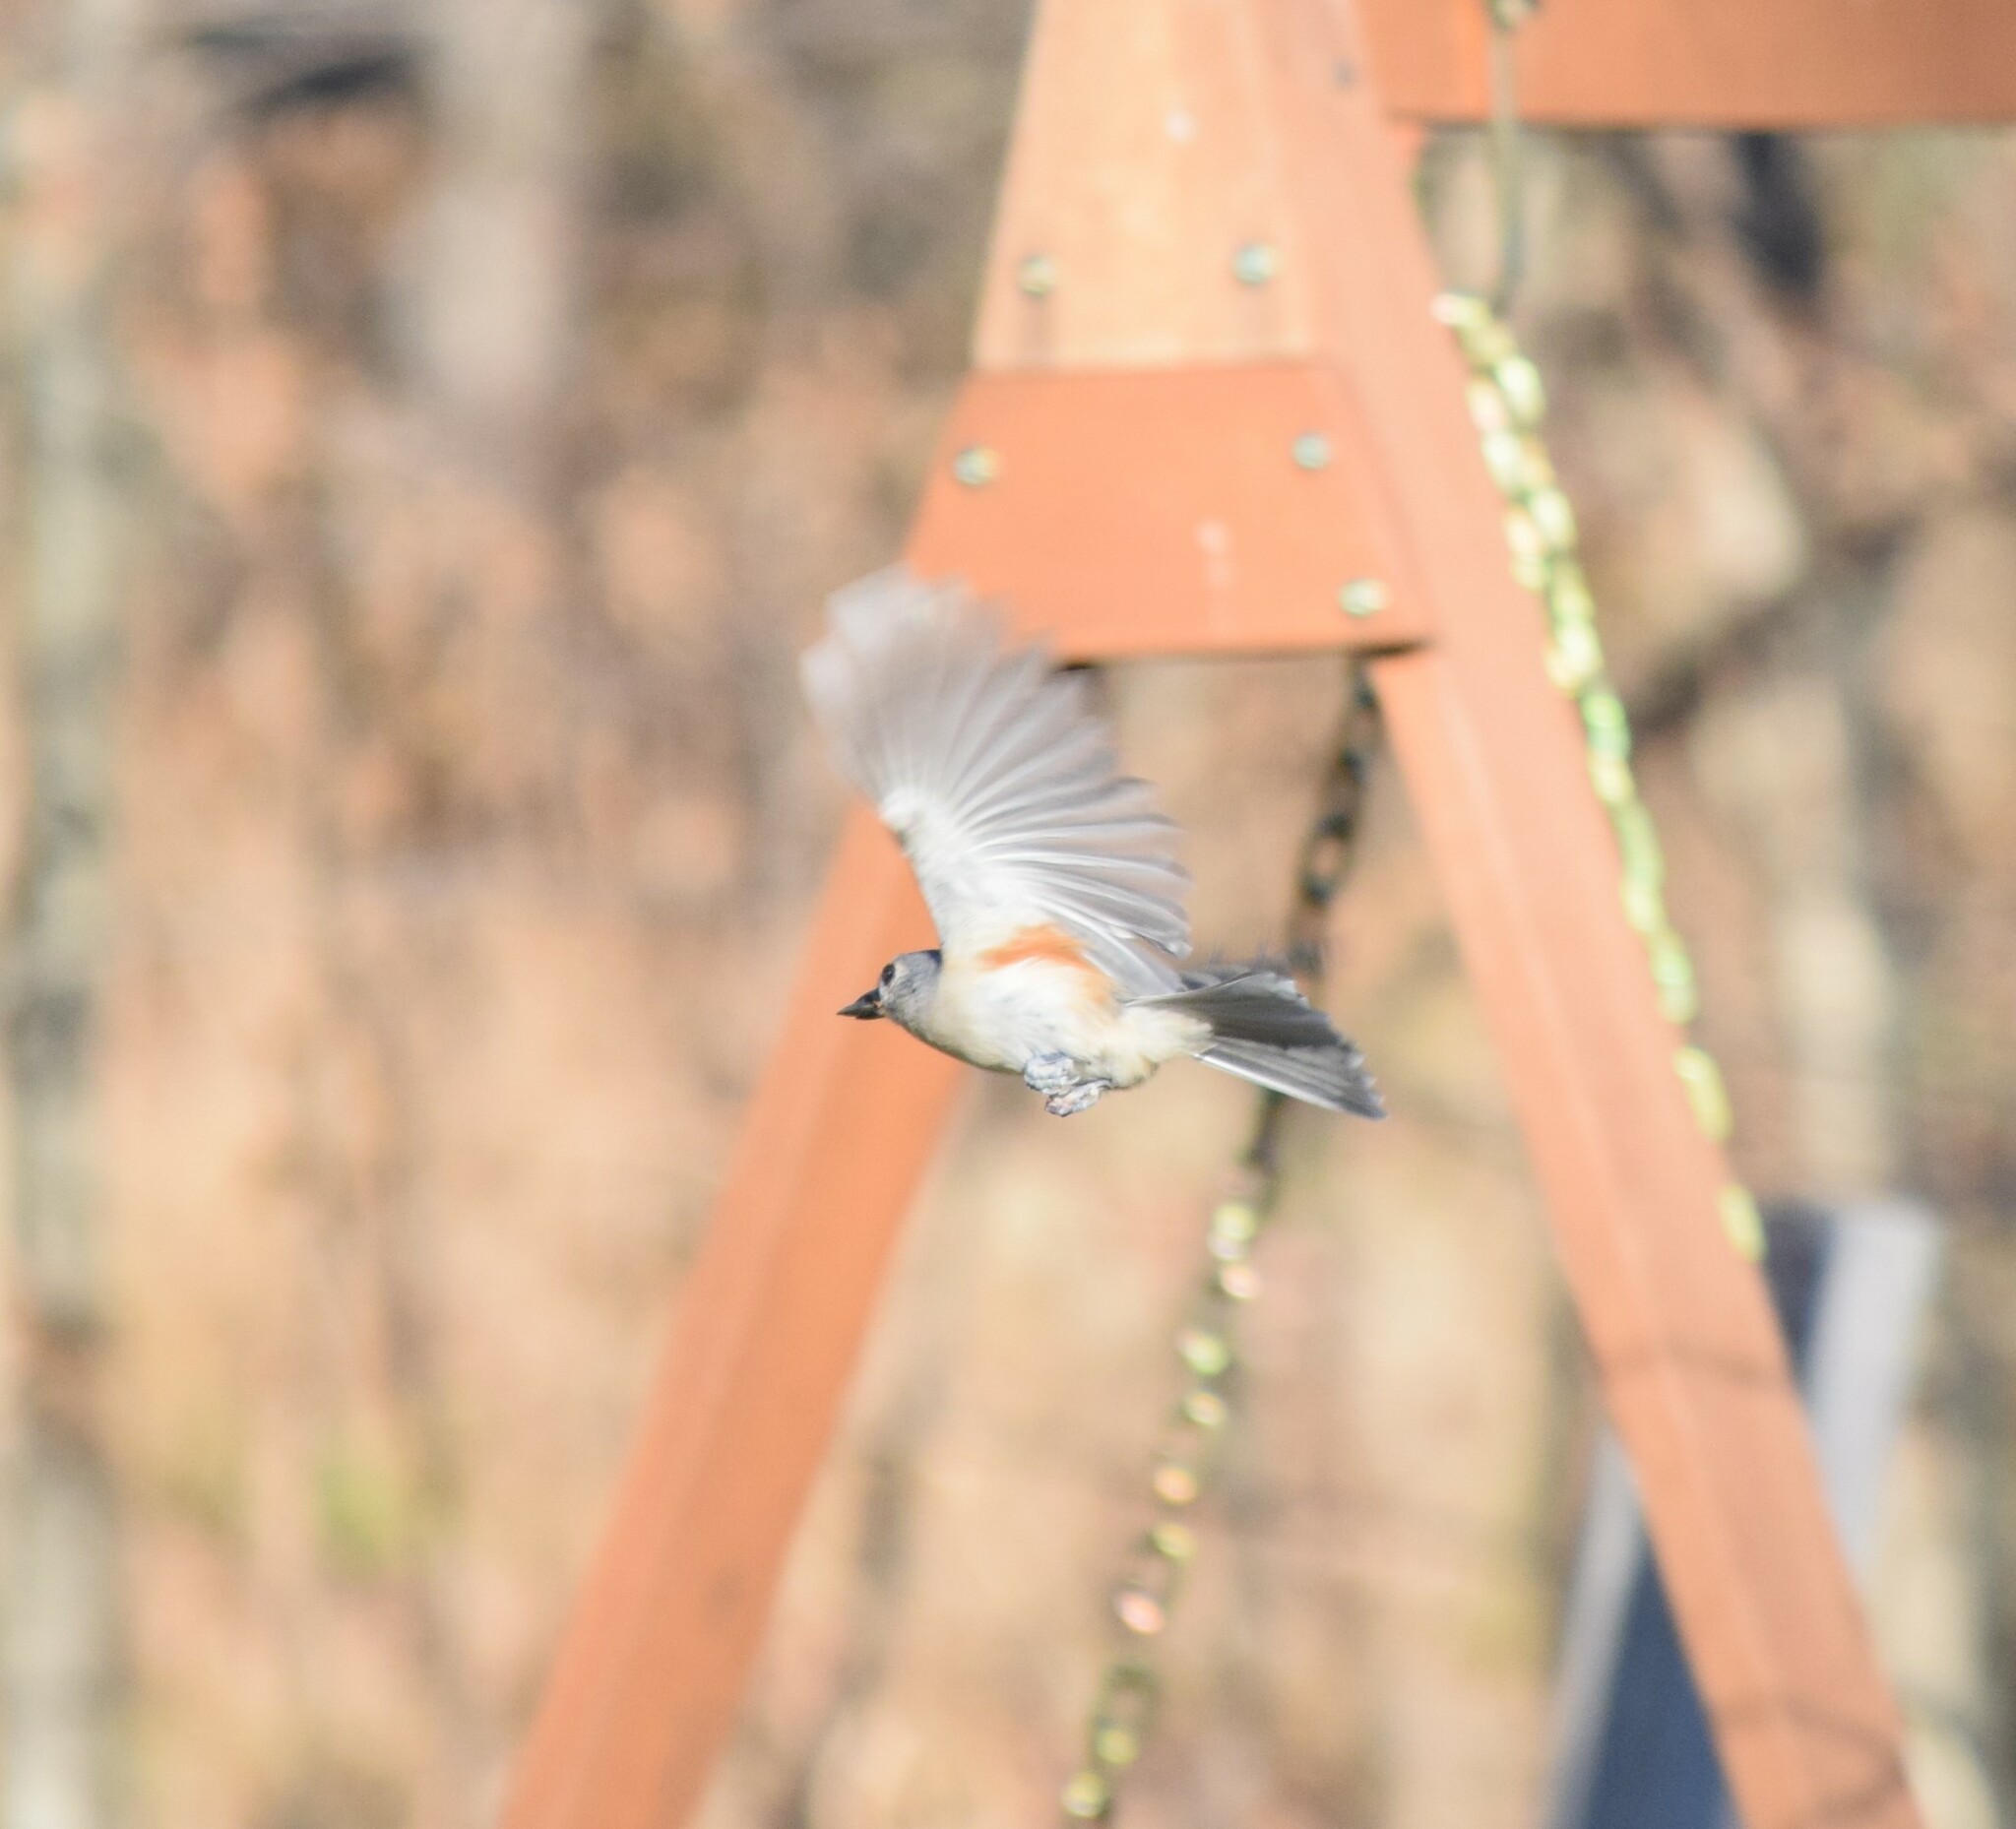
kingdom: Animalia
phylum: Chordata
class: Aves
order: Passeriformes
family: Paridae
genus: Baeolophus
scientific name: Baeolophus bicolor
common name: Tufted titmouse
